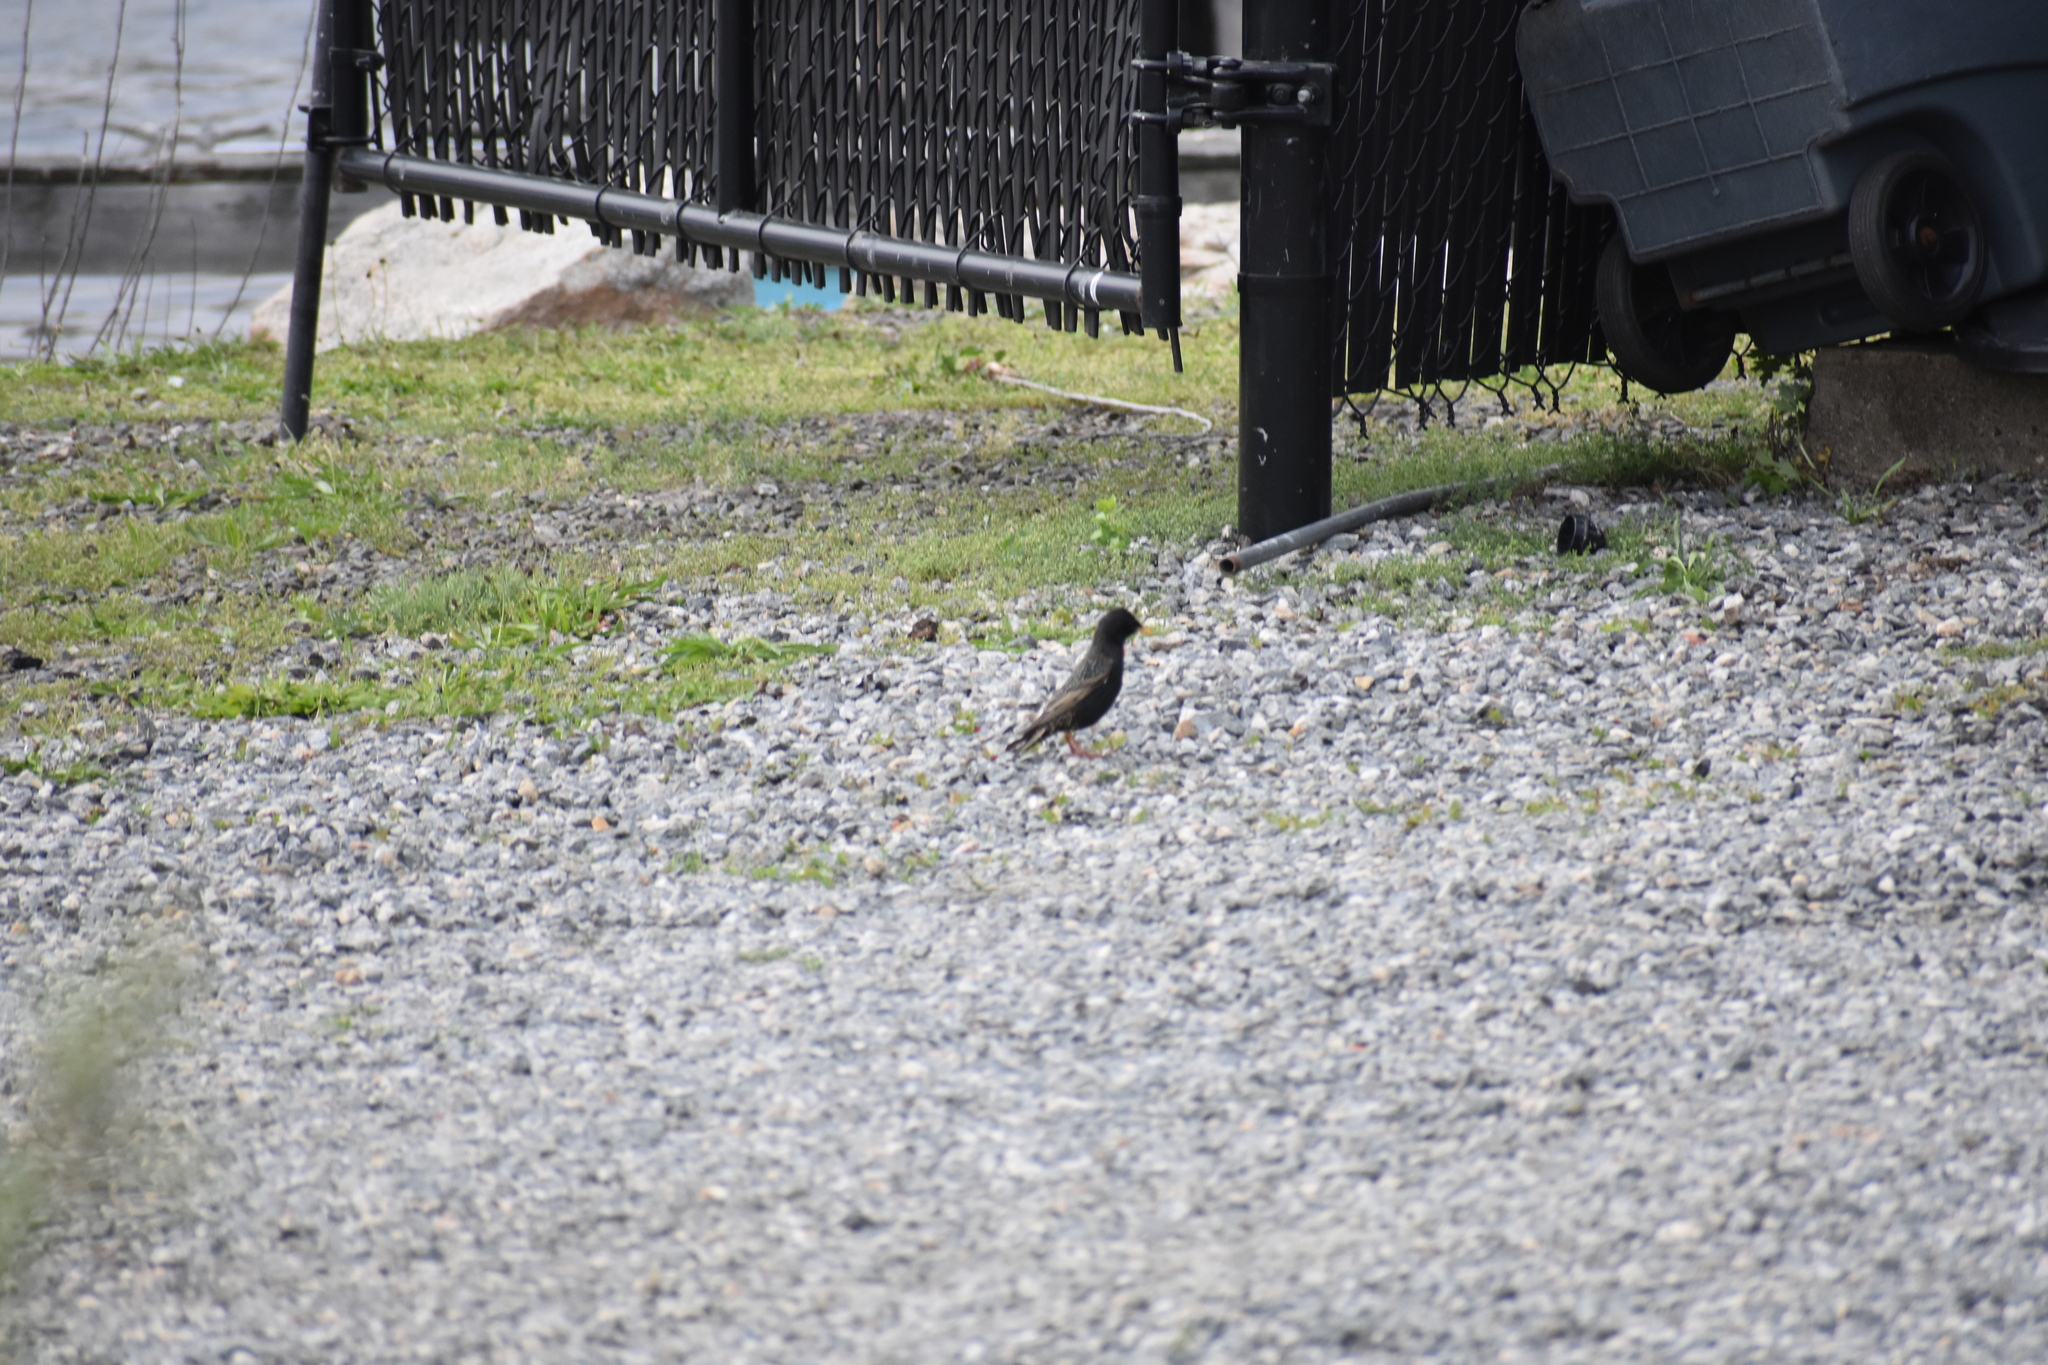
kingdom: Animalia
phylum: Chordata
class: Aves
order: Passeriformes
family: Sturnidae
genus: Sturnus
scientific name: Sturnus vulgaris
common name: Common starling
